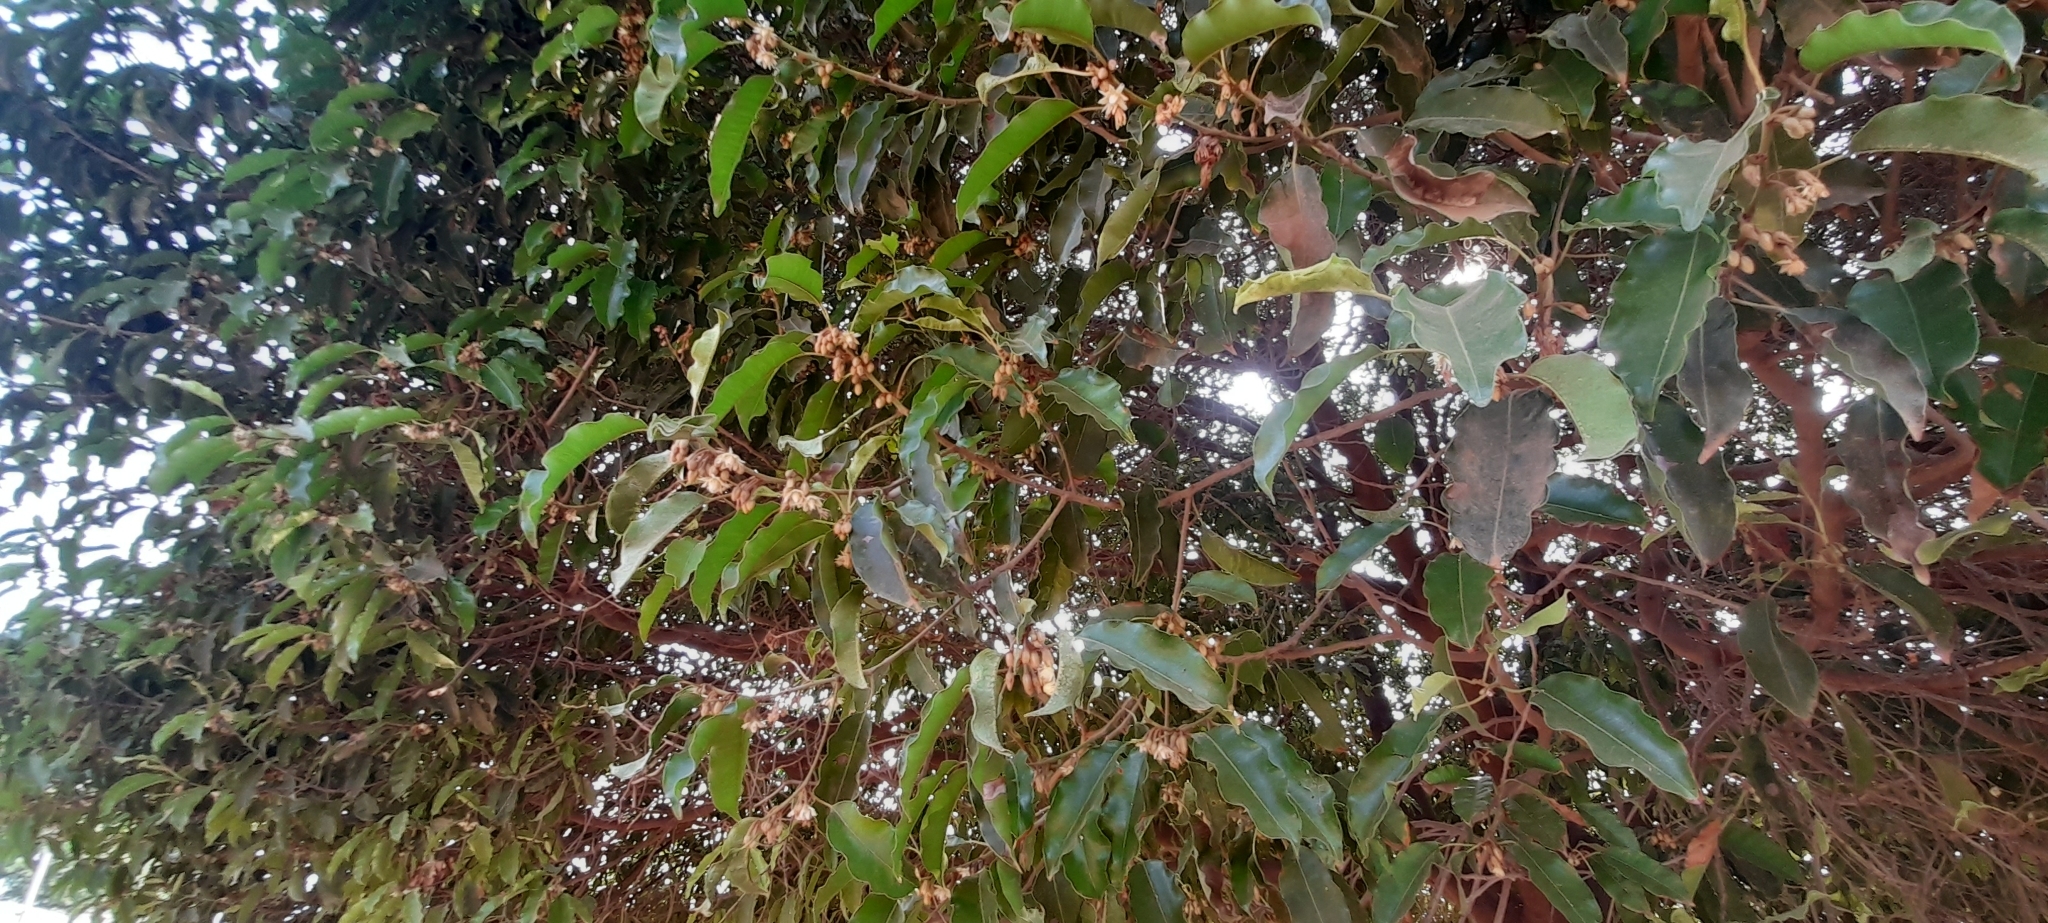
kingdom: Plantae
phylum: Tracheophyta
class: Magnoliopsida
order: Ericales
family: Sapotaceae
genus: Mimusops
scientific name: Mimusops elengi
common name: Spanish cherry
